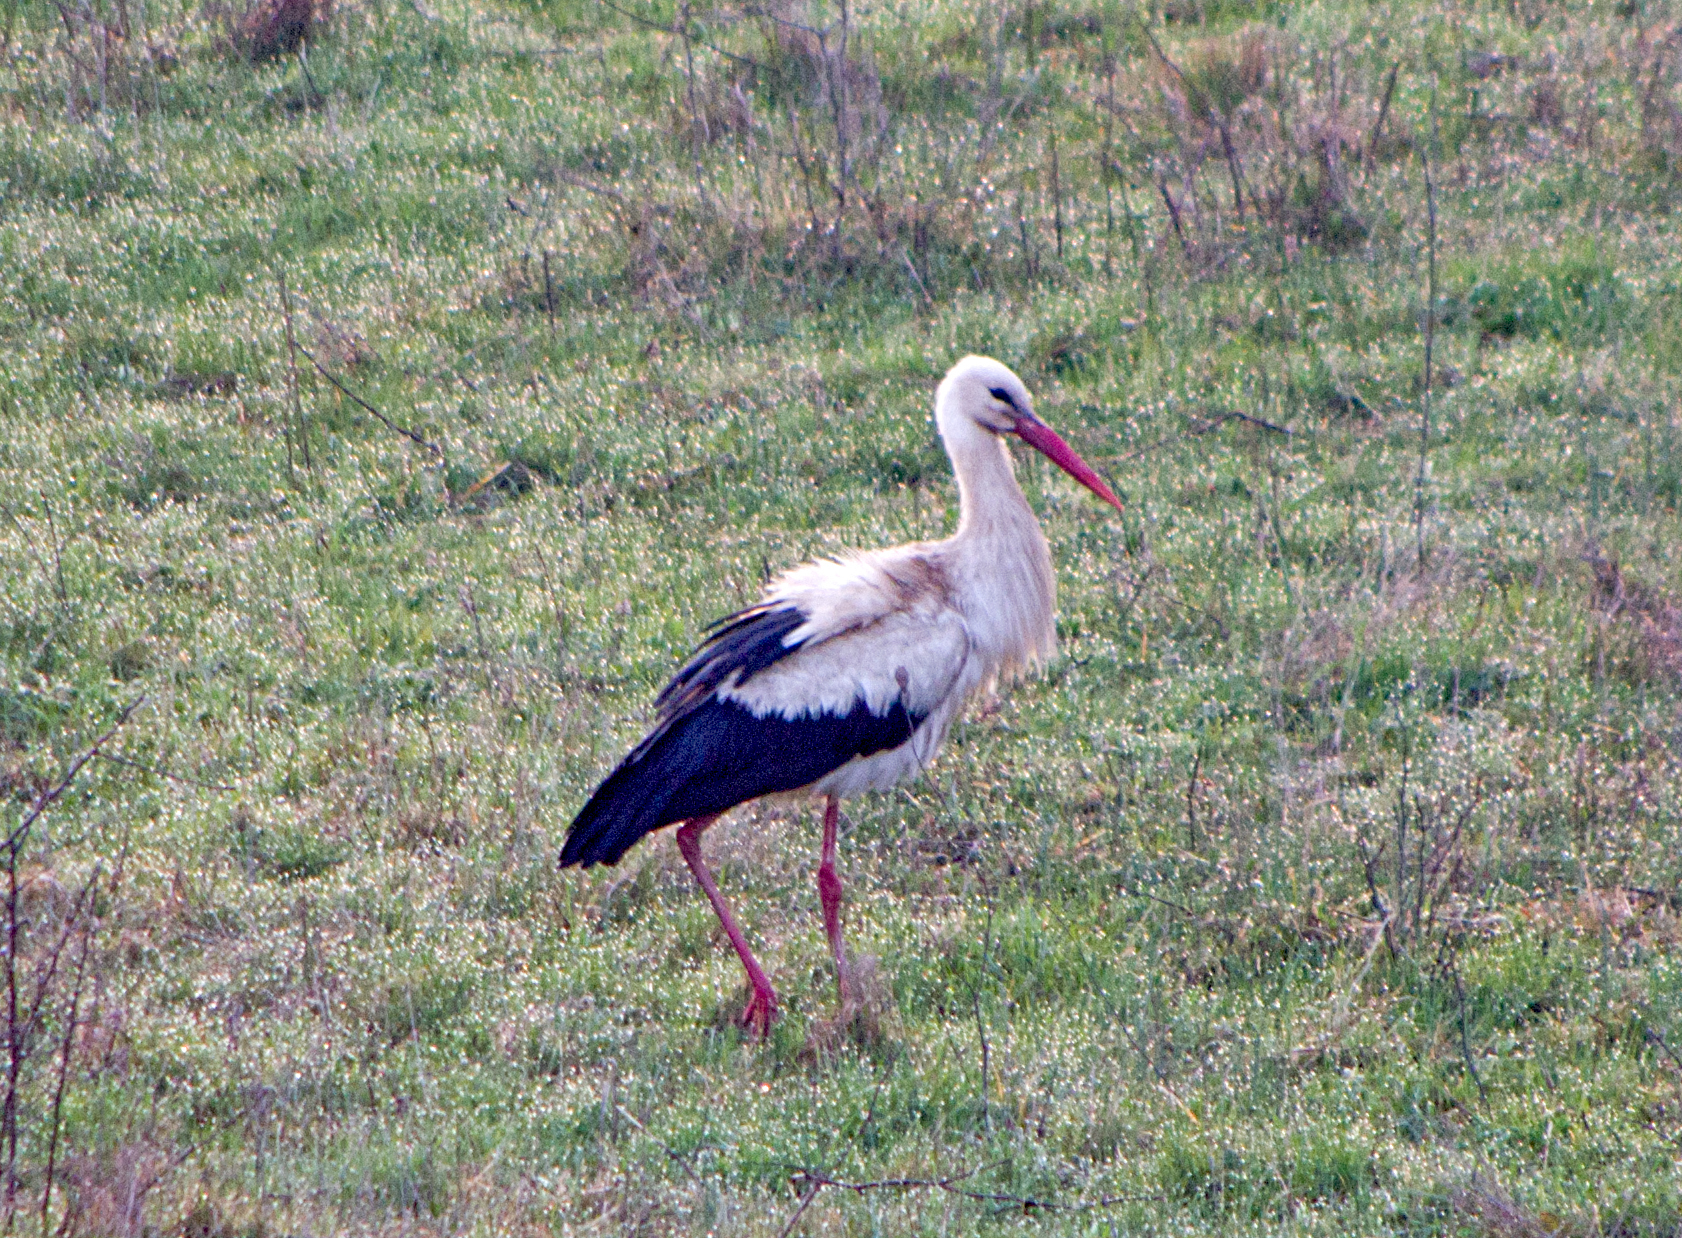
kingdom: Animalia
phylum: Chordata
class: Aves
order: Ciconiiformes
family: Ciconiidae
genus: Ciconia
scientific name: Ciconia ciconia
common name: White stork
